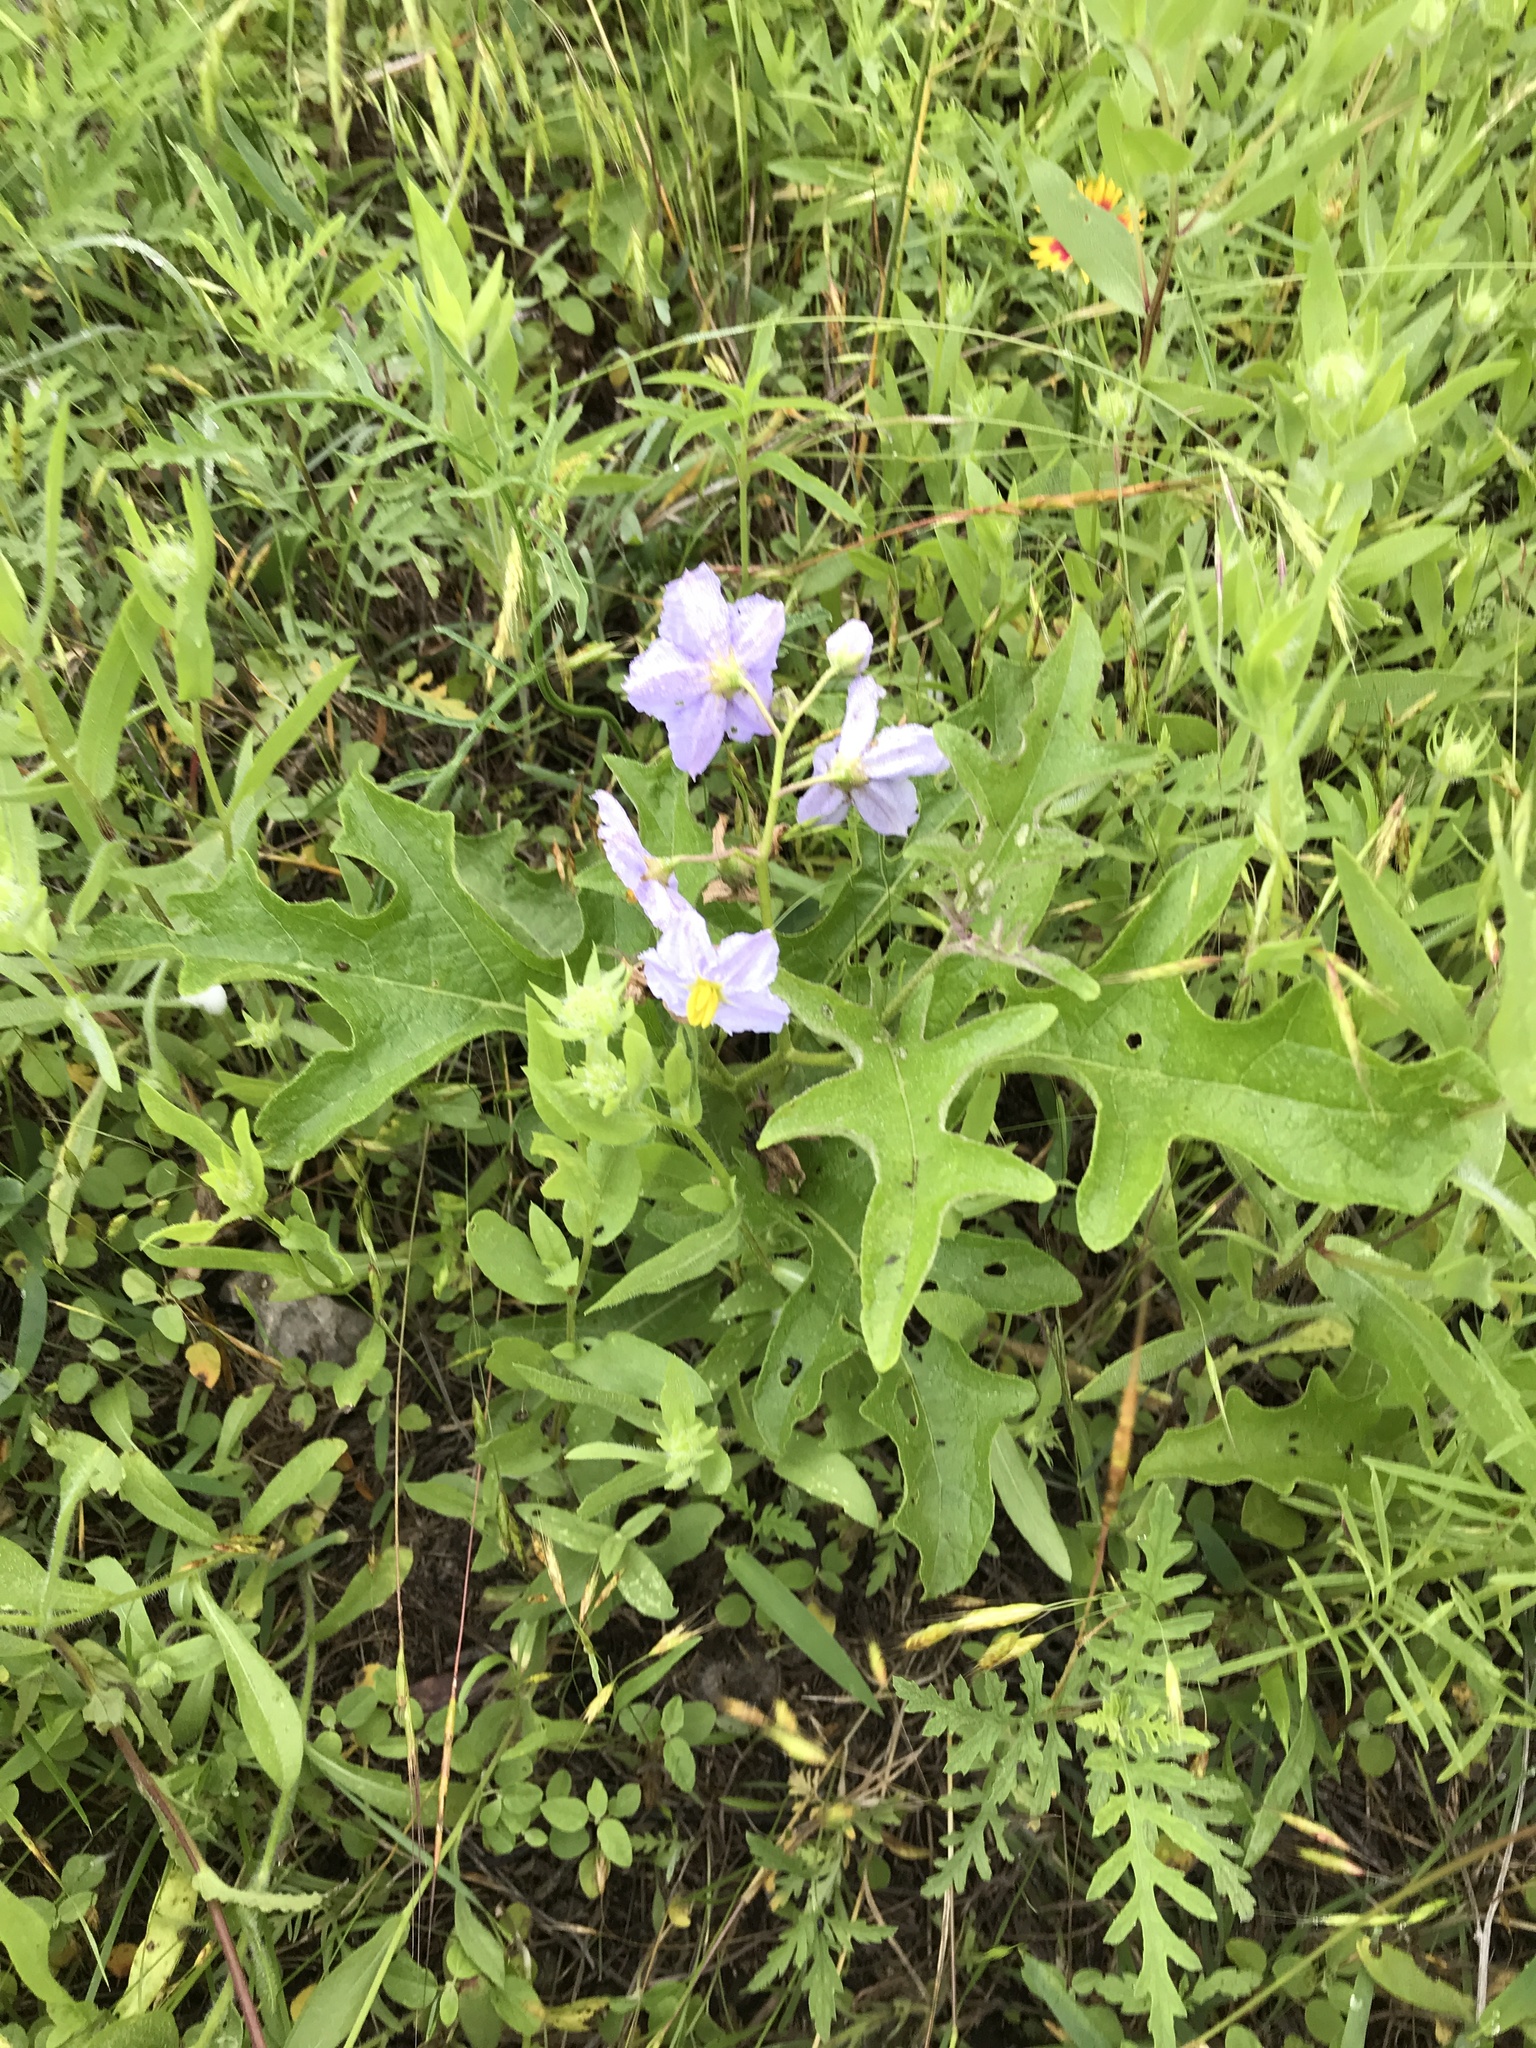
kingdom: Plantae
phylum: Tracheophyta
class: Magnoliopsida
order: Solanales
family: Solanaceae
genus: Solanum
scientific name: Solanum dimidiatum
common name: Carolina horse-nettle
